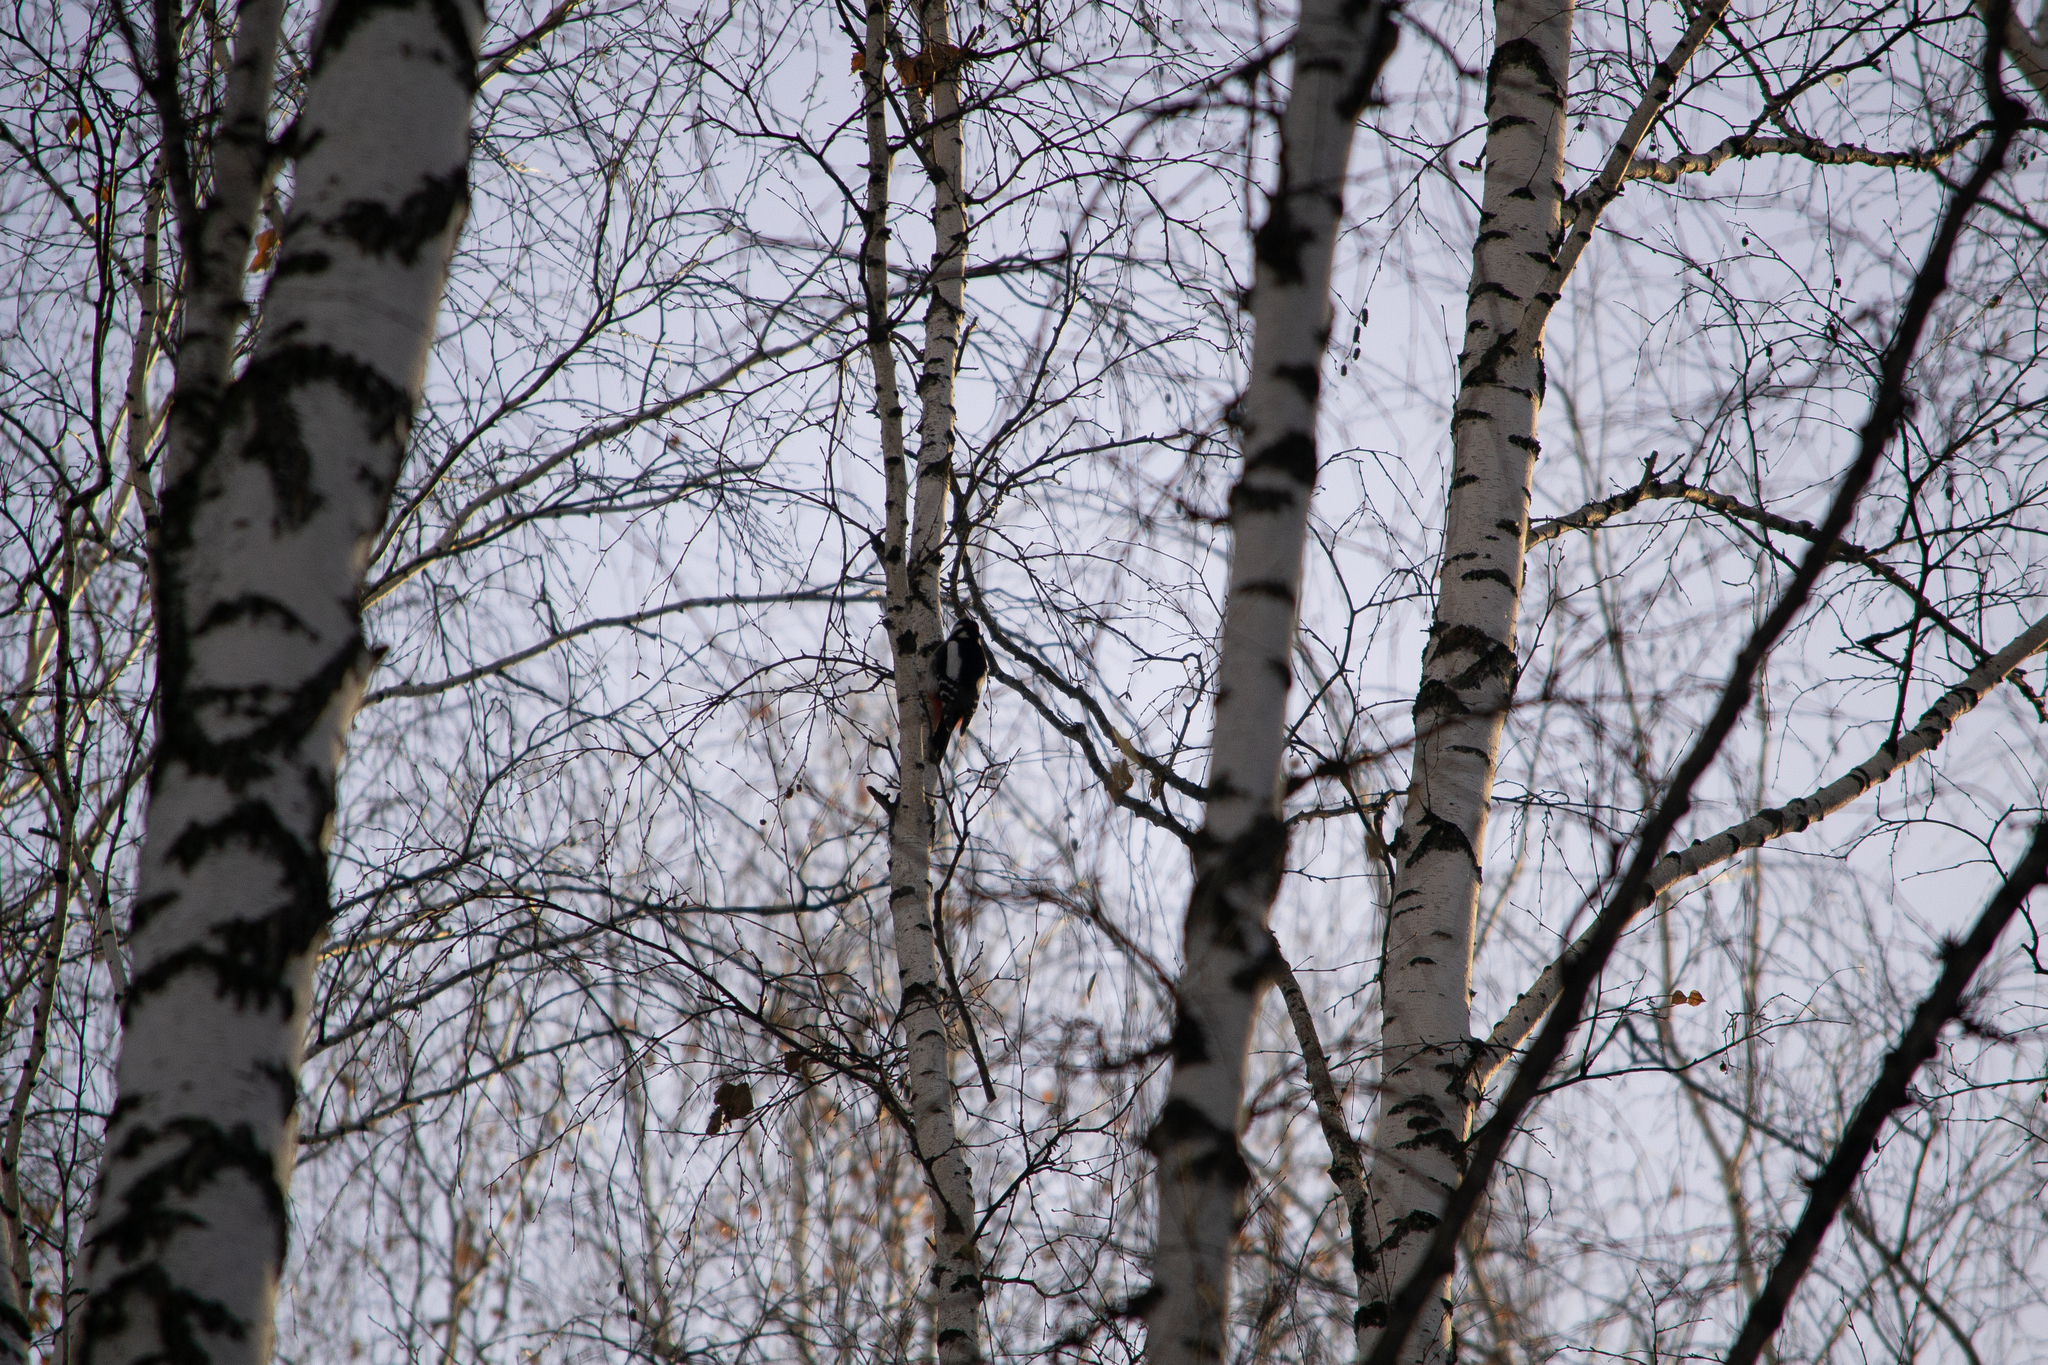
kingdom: Animalia
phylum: Chordata
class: Aves
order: Piciformes
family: Picidae
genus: Dendrocopos
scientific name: Dendrocopos major
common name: Great spotted woodpecker
